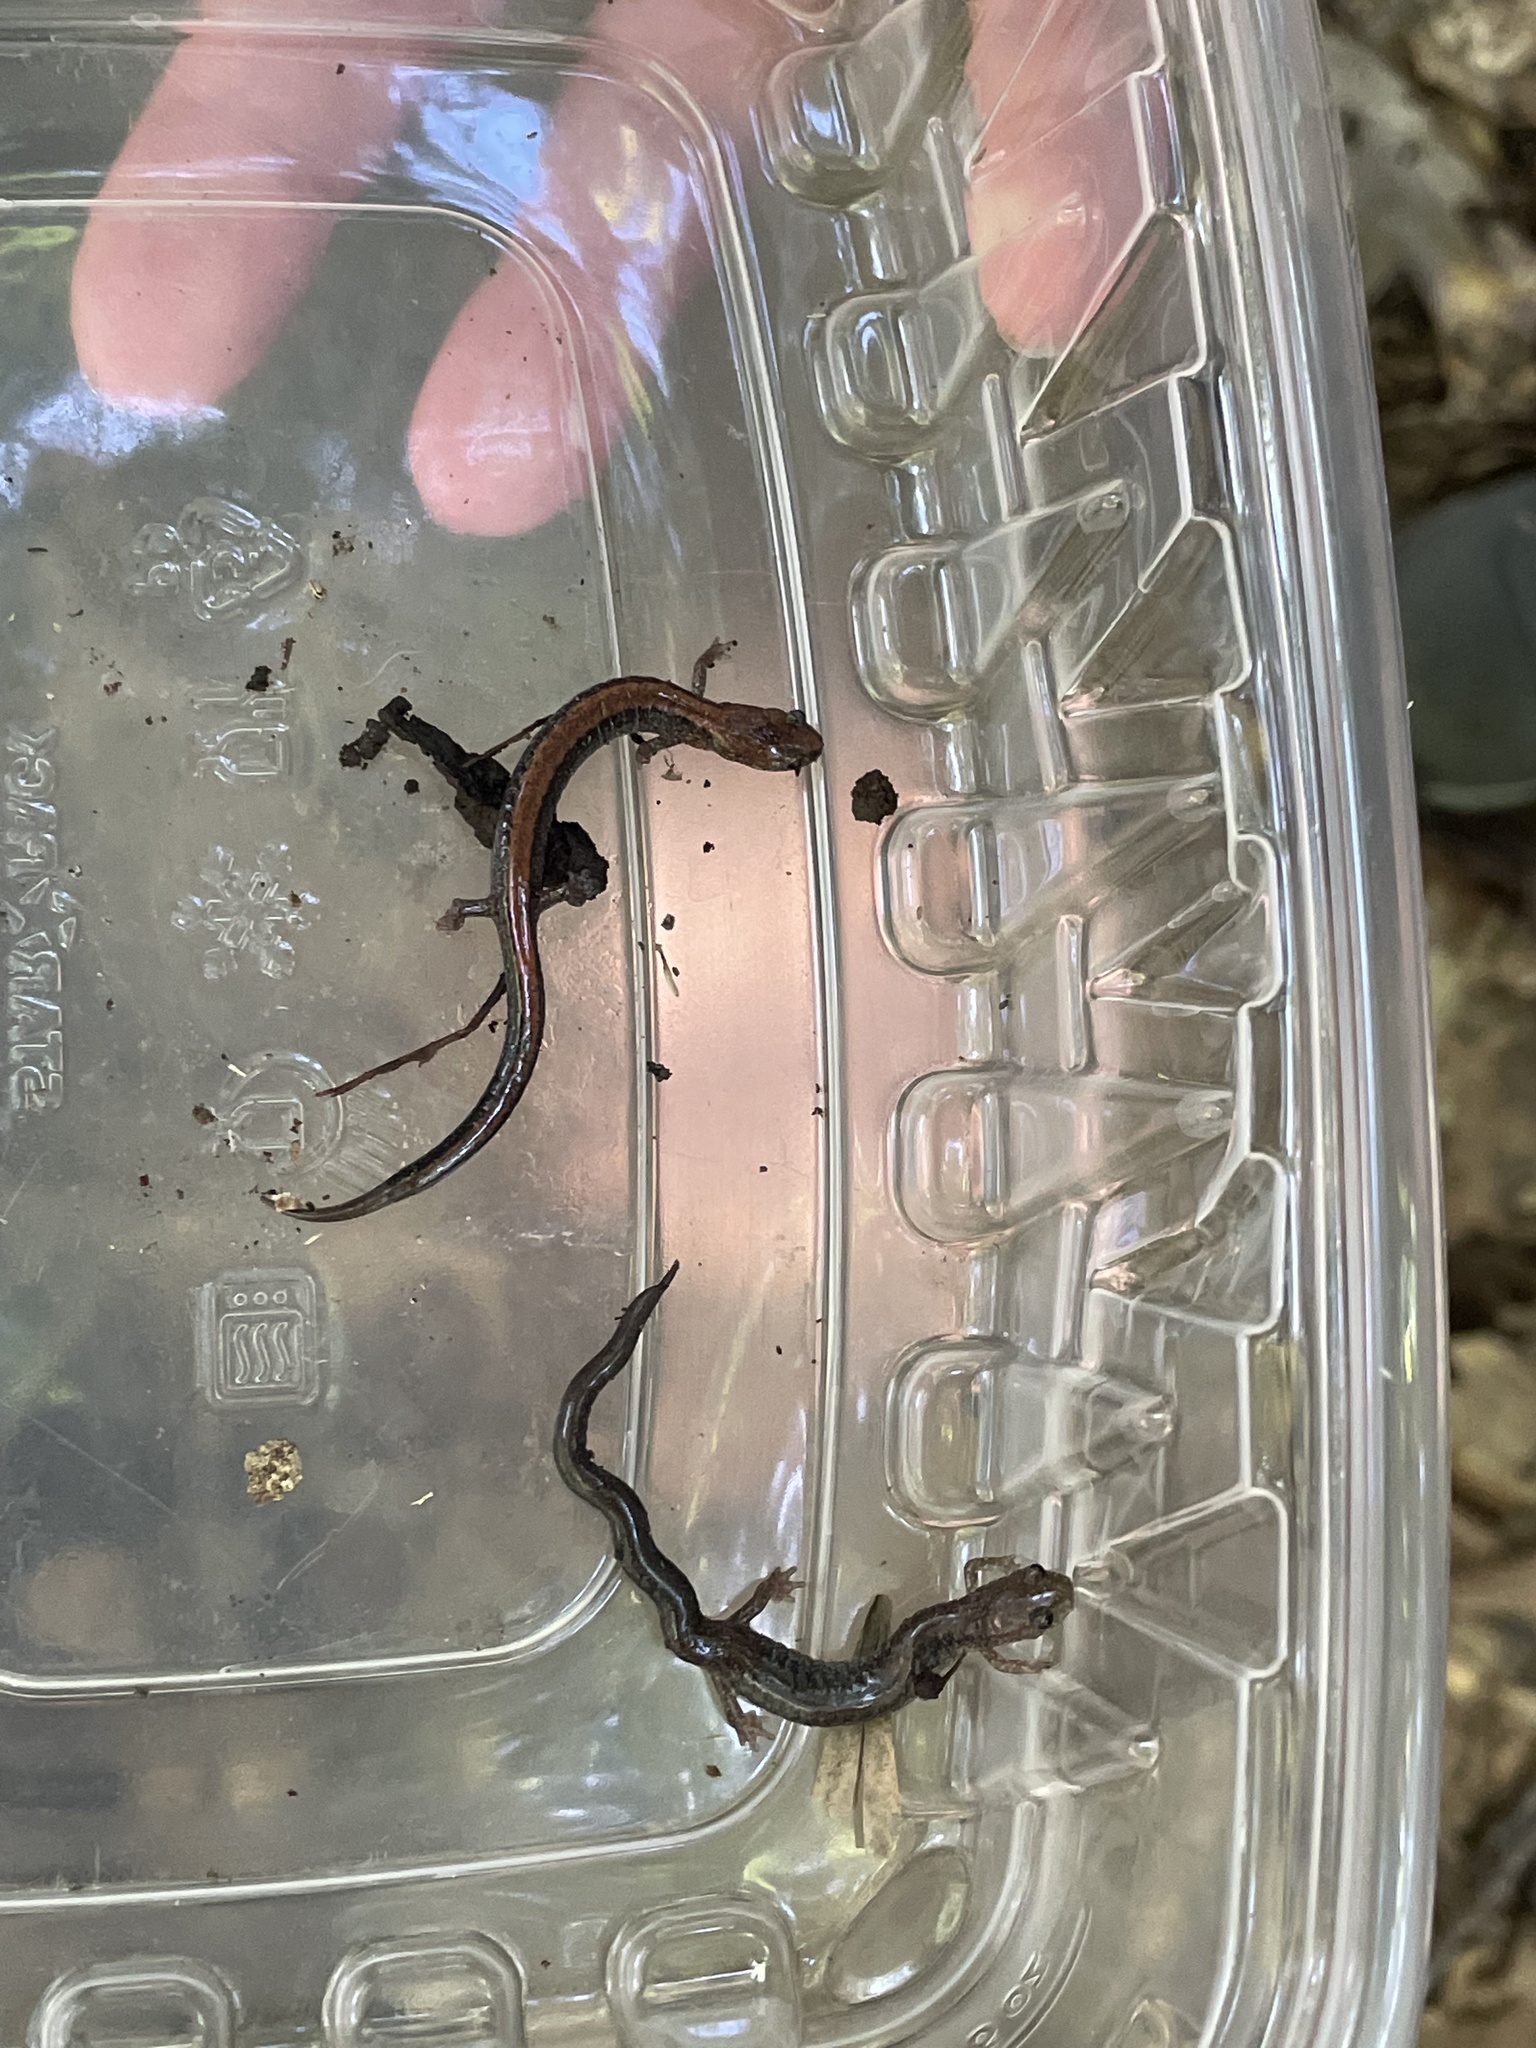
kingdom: Animalia
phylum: Chordata
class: Amphibia
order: Caudata
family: Plethodontidae
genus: Plethodon
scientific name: Plethodon cinereus
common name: Redback salamander
